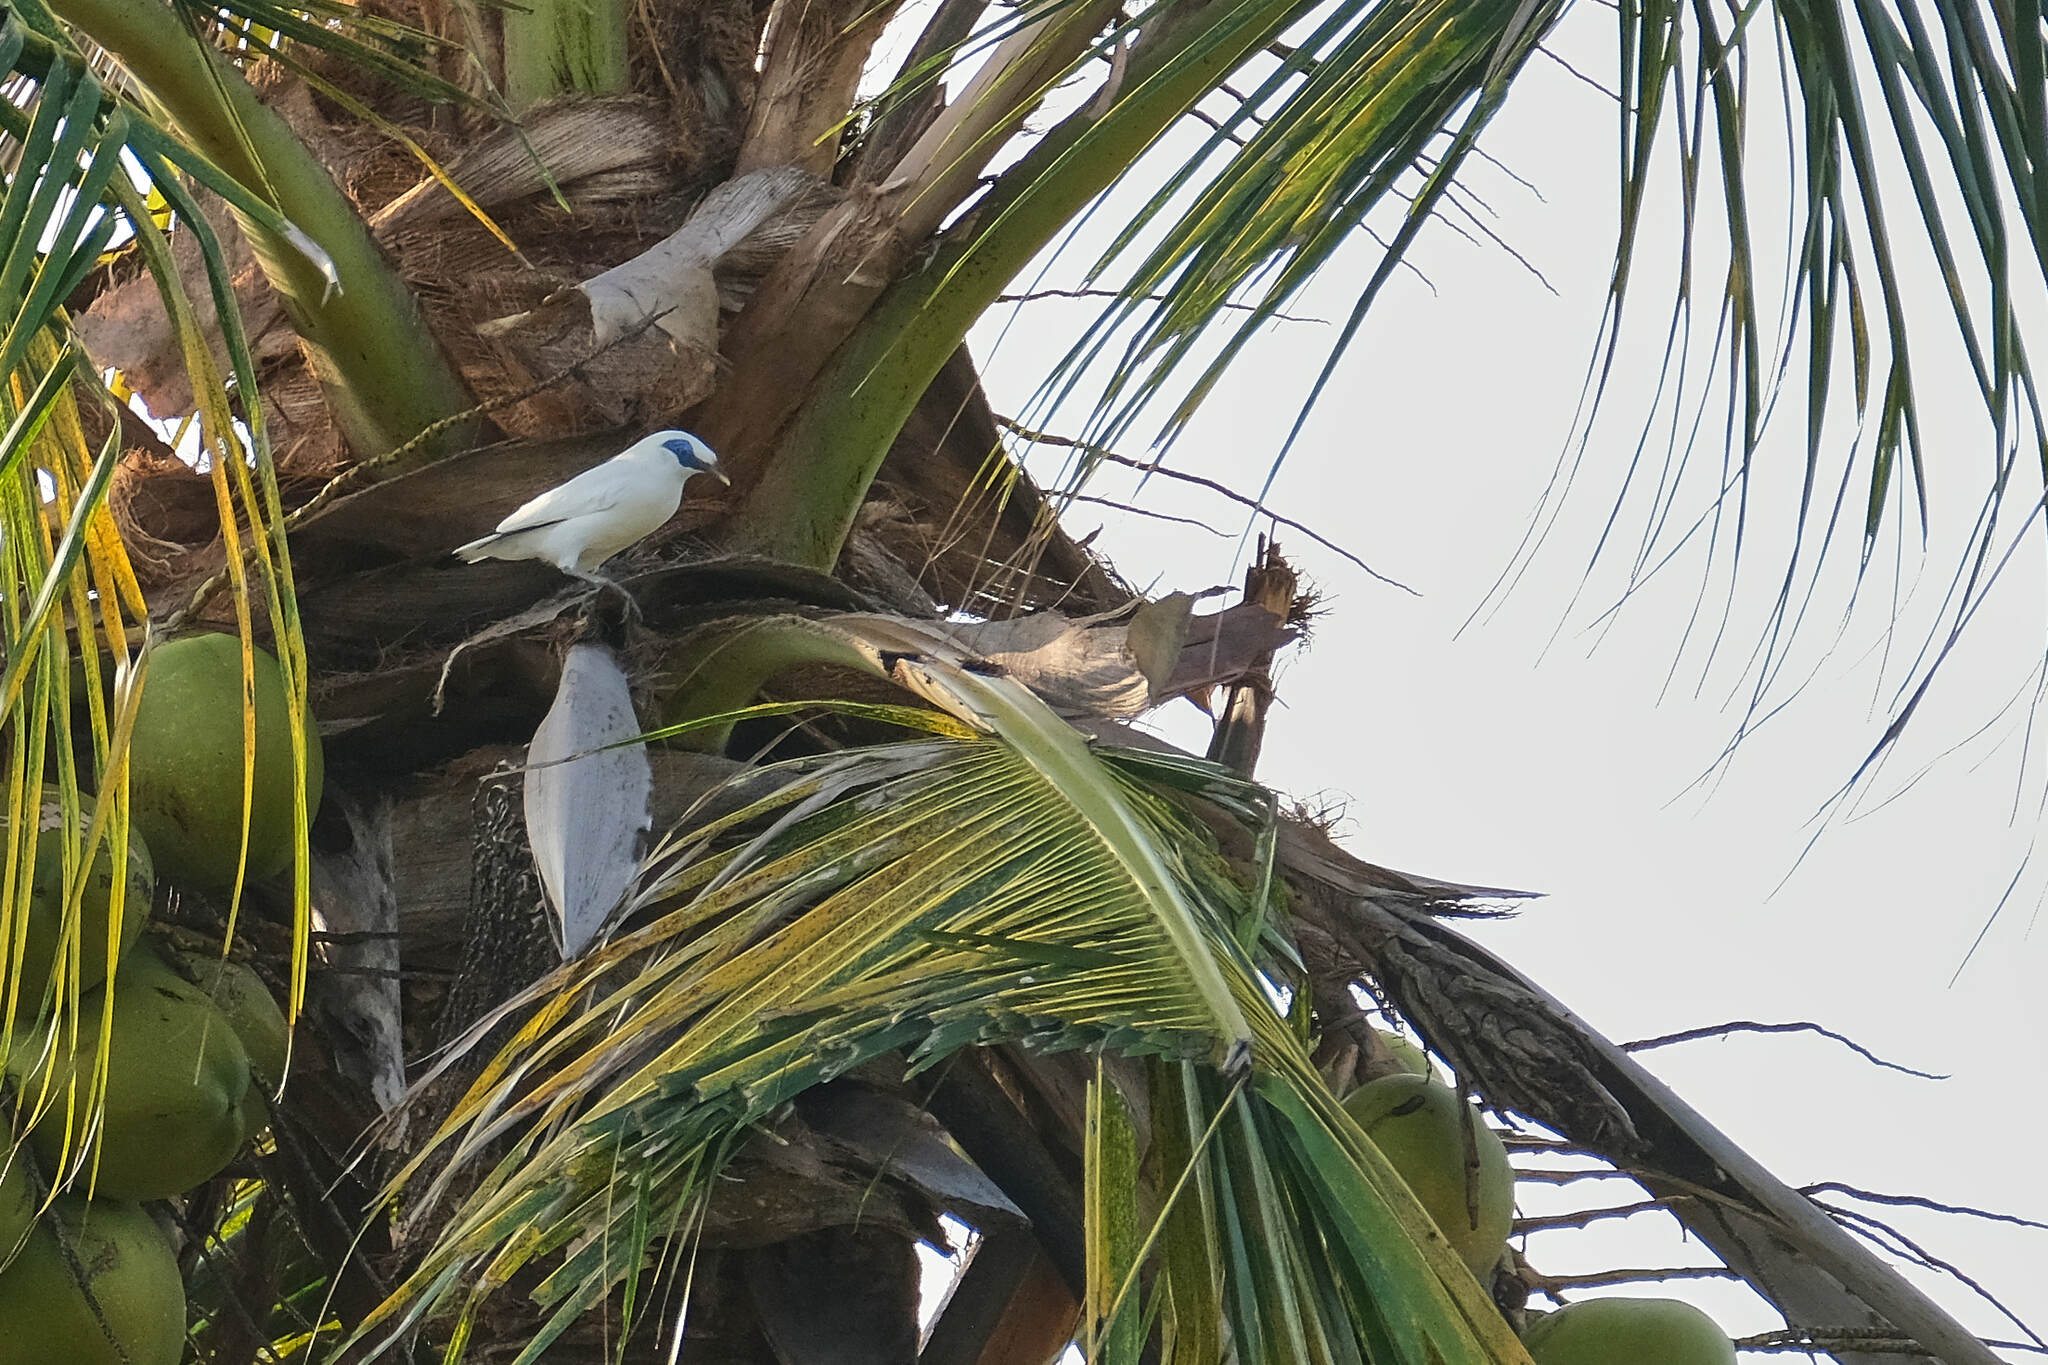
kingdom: Animalia
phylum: Chordata
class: Aves
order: Passeriformes
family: Sturnidae
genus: Leucopsar
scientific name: Leucopsar rothschildi
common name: Bali myna
